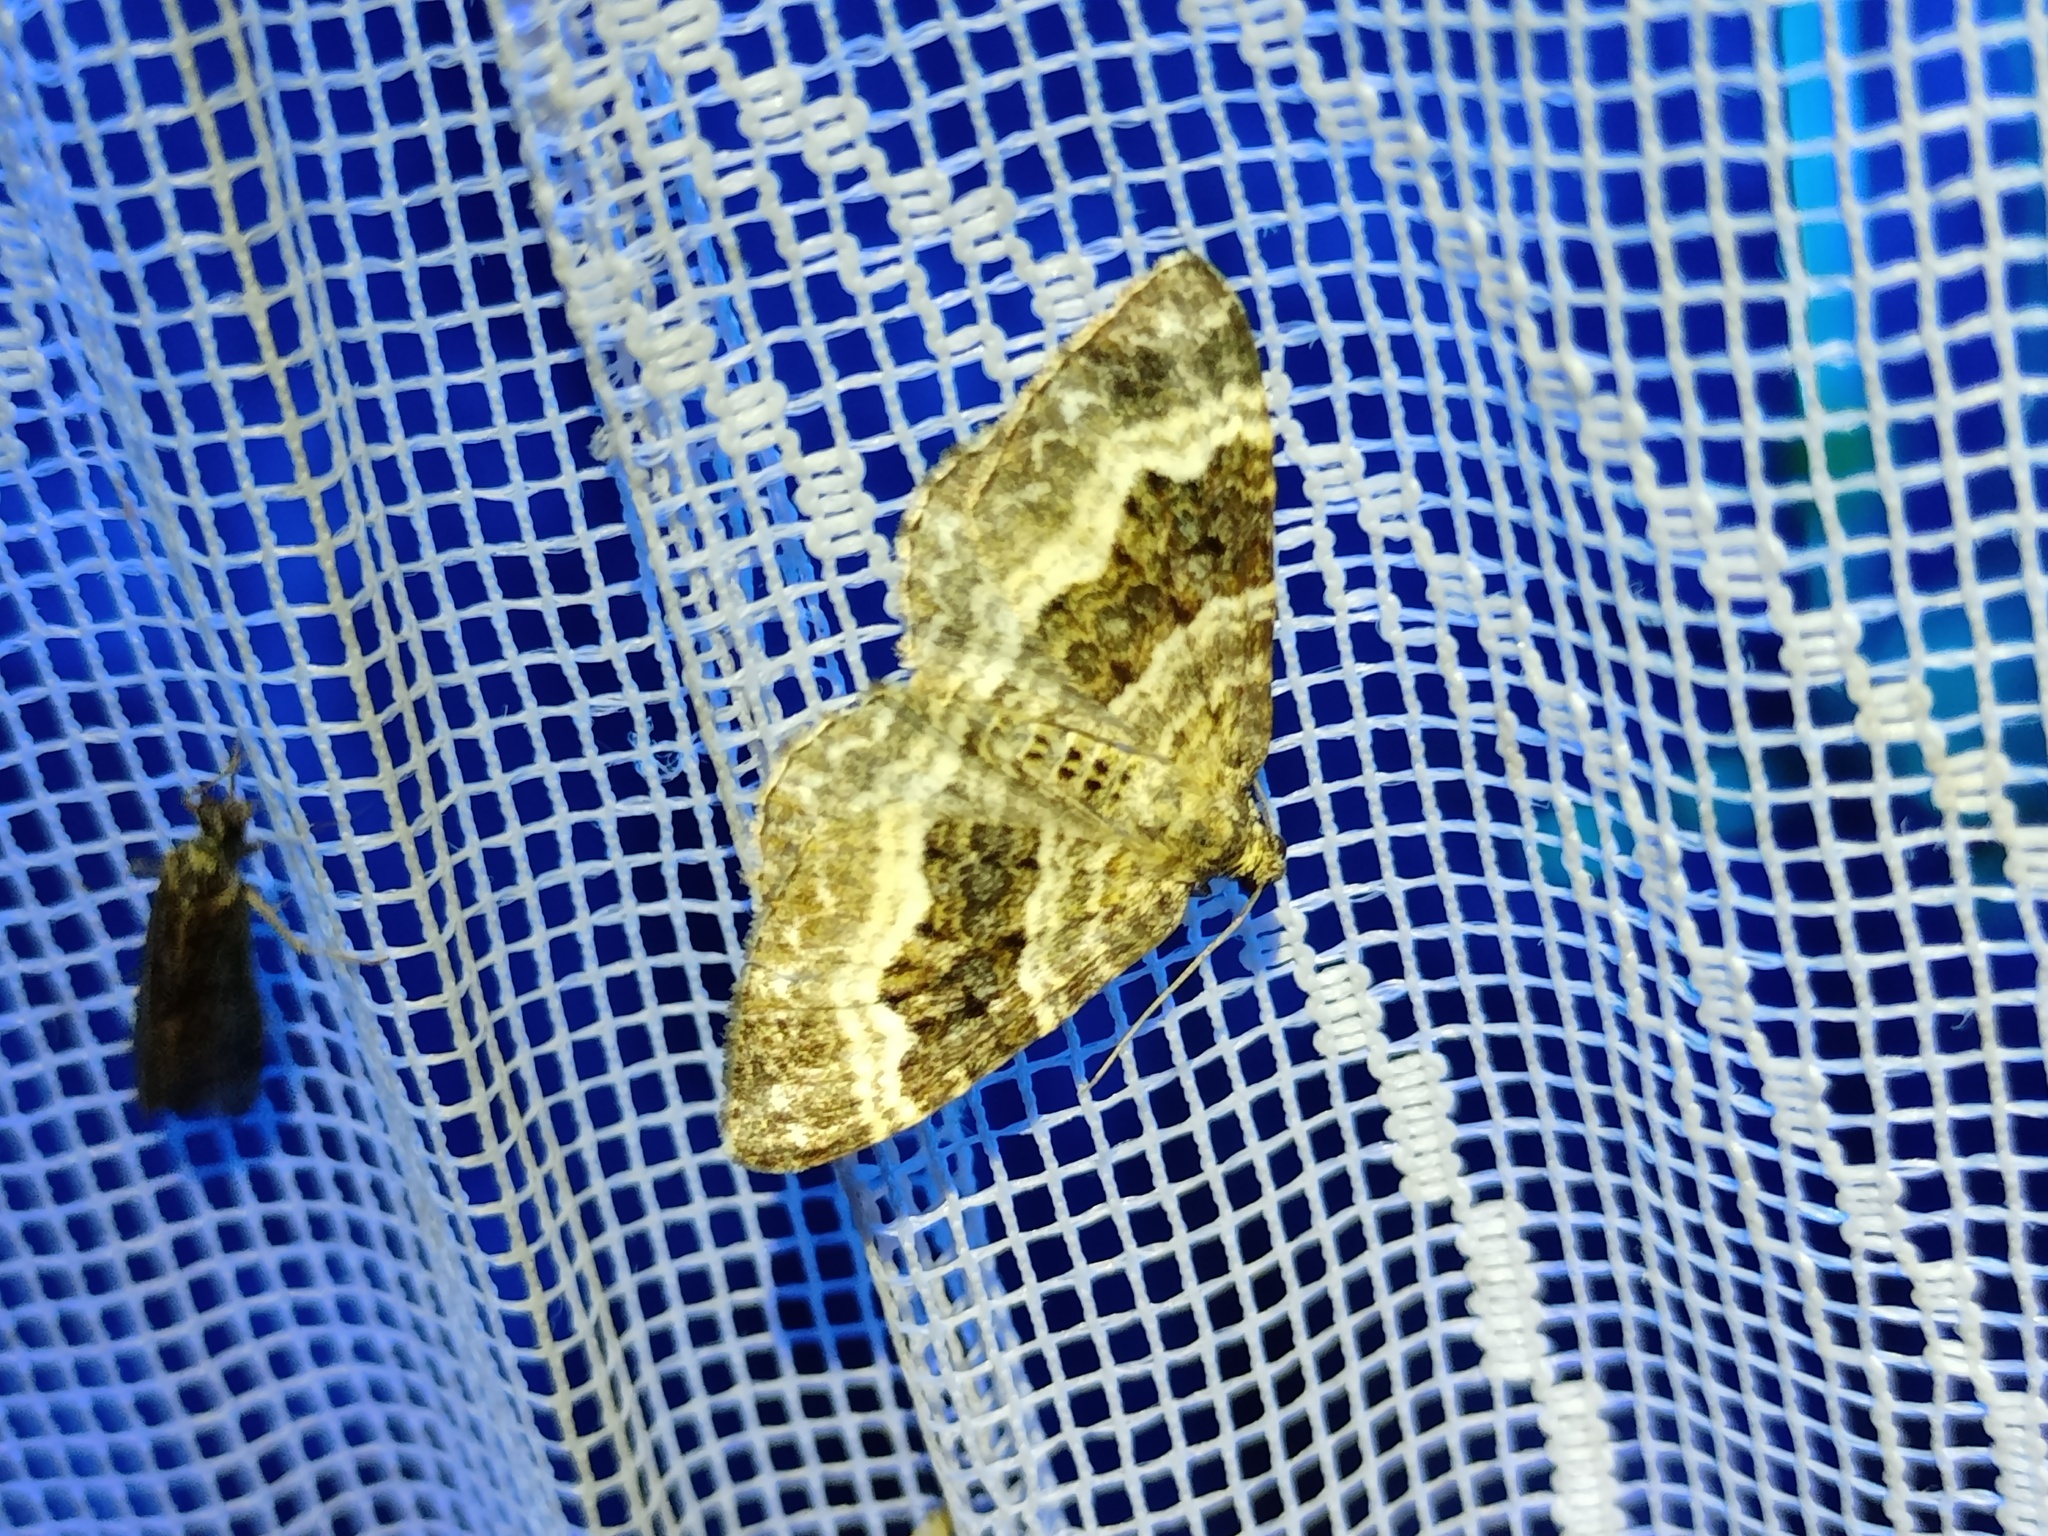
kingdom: Animalia
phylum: Arthropoda
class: Insecta
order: Lepidoptera
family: Geometridae
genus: Epirrhoe
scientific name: Epirrhoe alternata
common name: Common carpet
